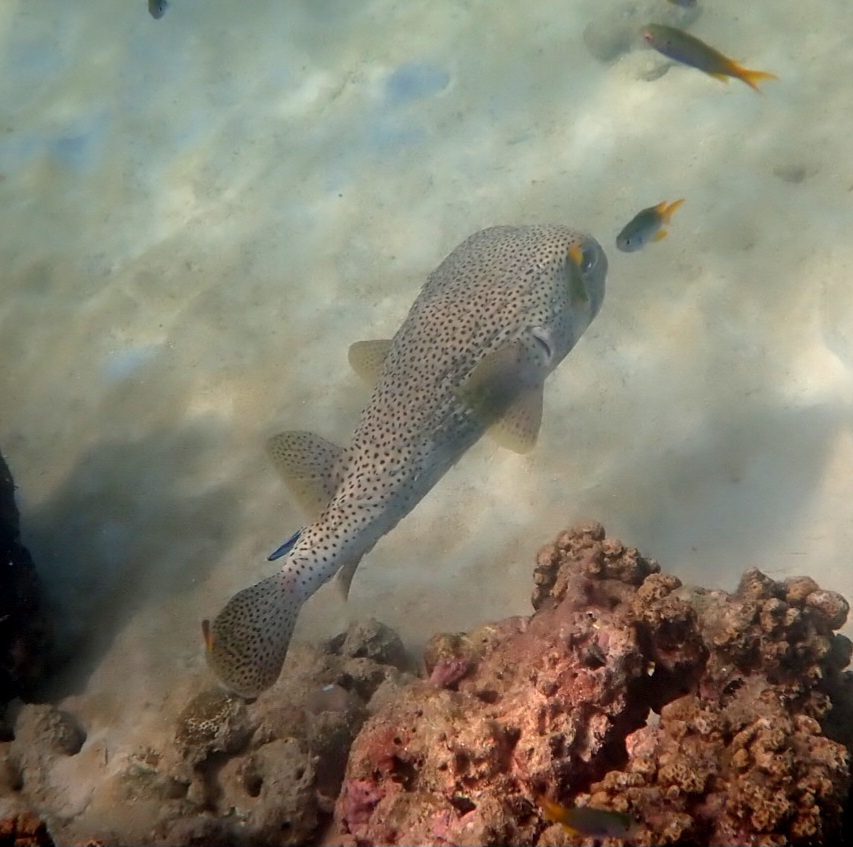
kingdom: Animalia
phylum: Chordata
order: Tetraodontiformes
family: Diodontidae
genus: Diodon
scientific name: Diodon hystrix
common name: Giant porcupinefish
